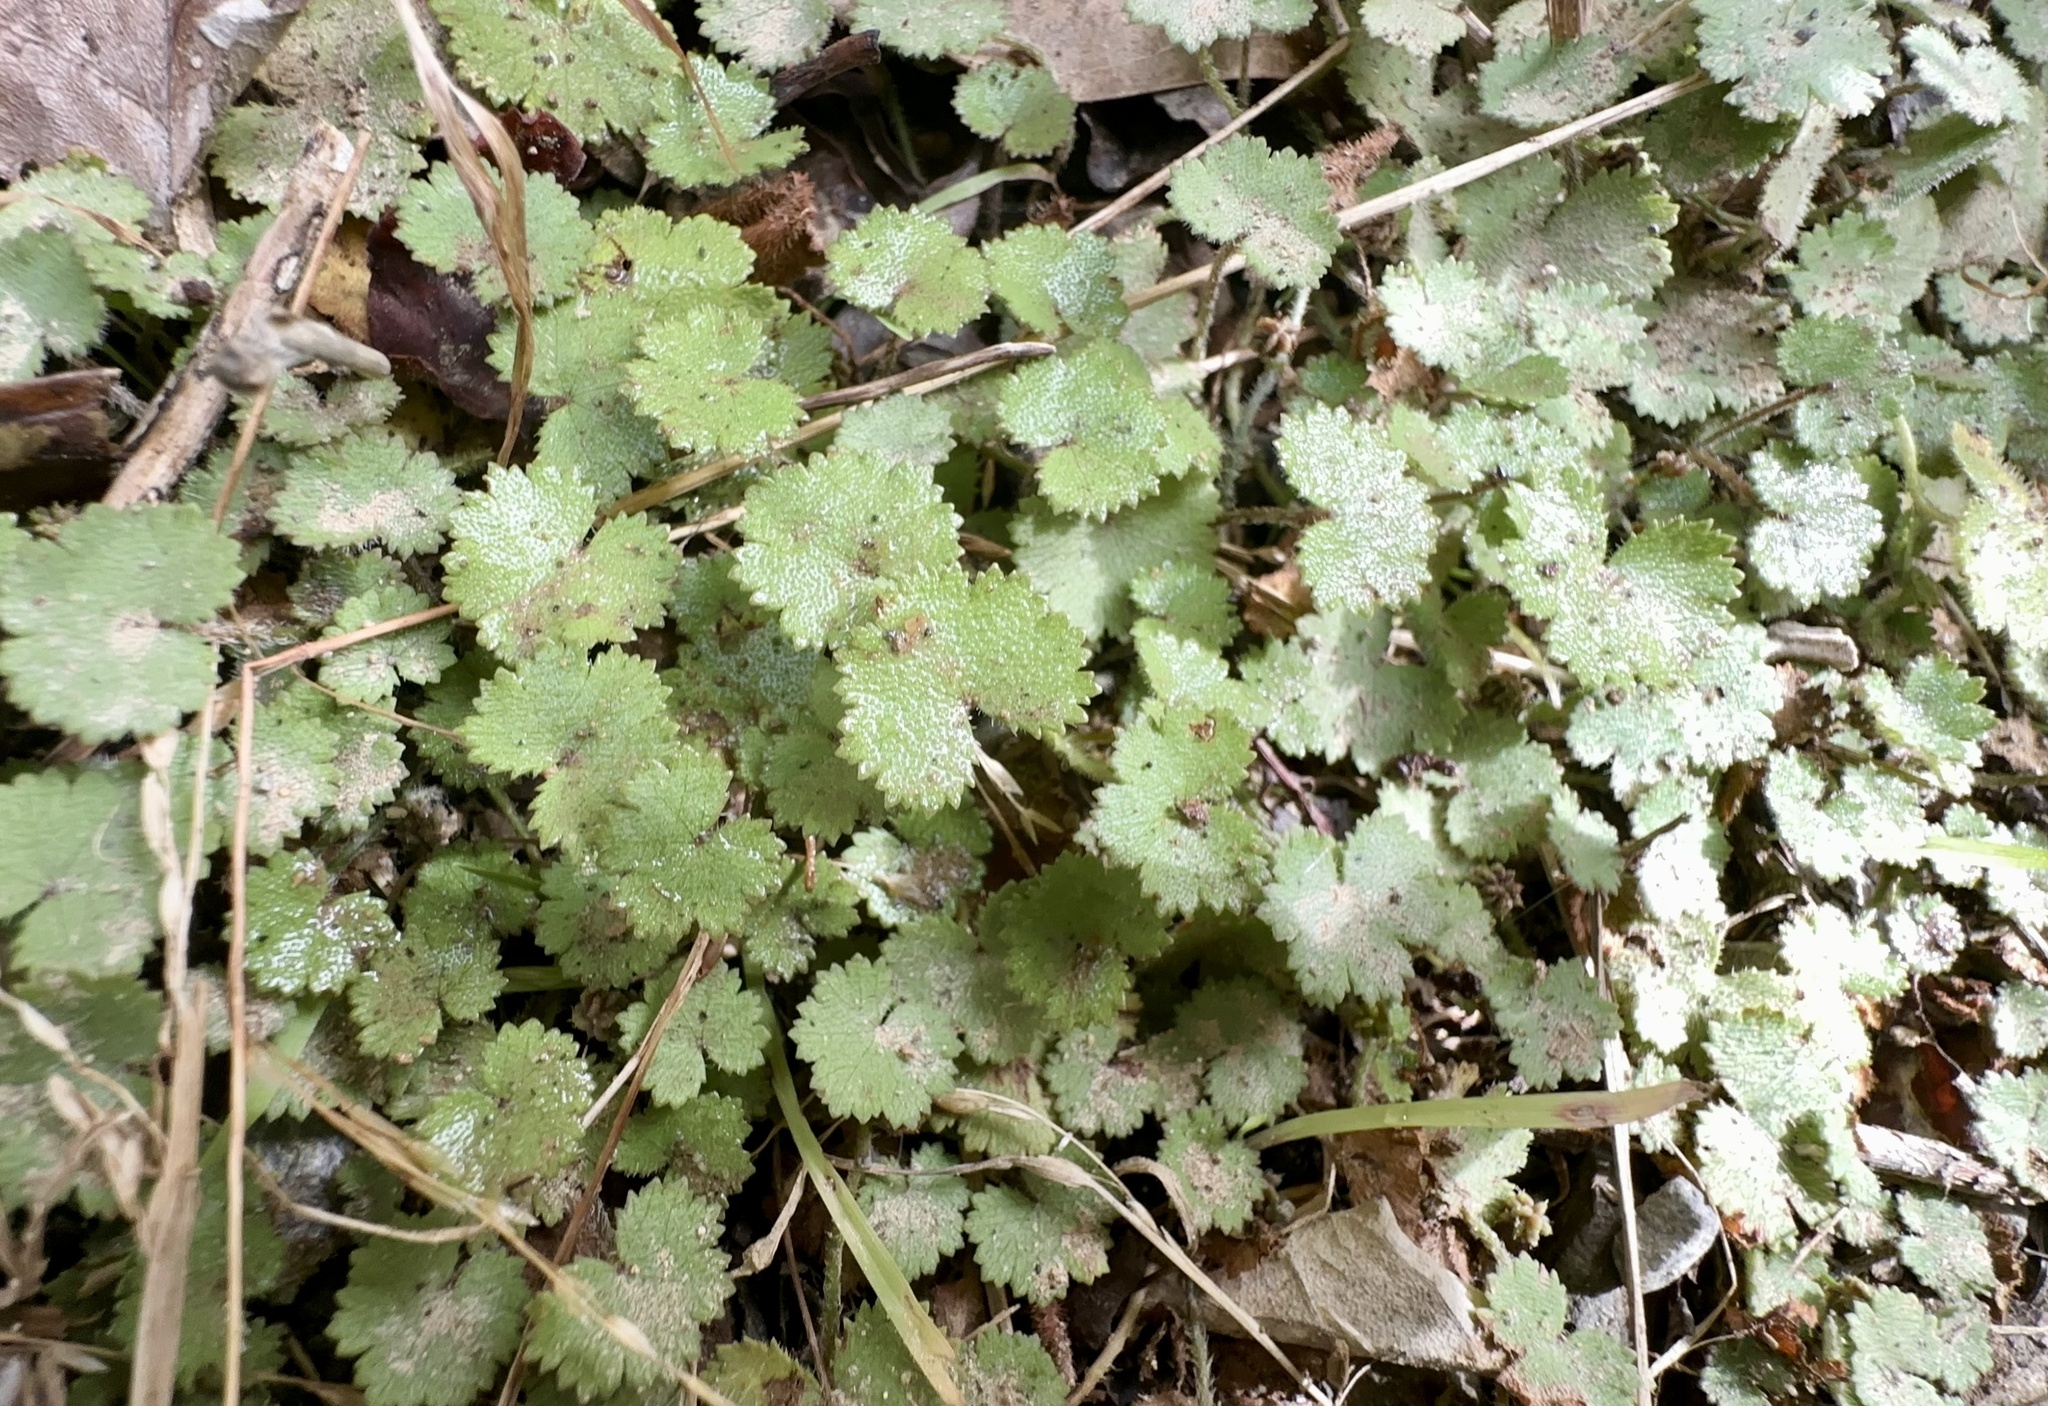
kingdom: Plantae
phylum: Tracheophyta
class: Magnoliopsida
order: Apiales
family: Araliaceae
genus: Hydrocotyle
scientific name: Hydrocotyle moschata
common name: Hairy pennywort
